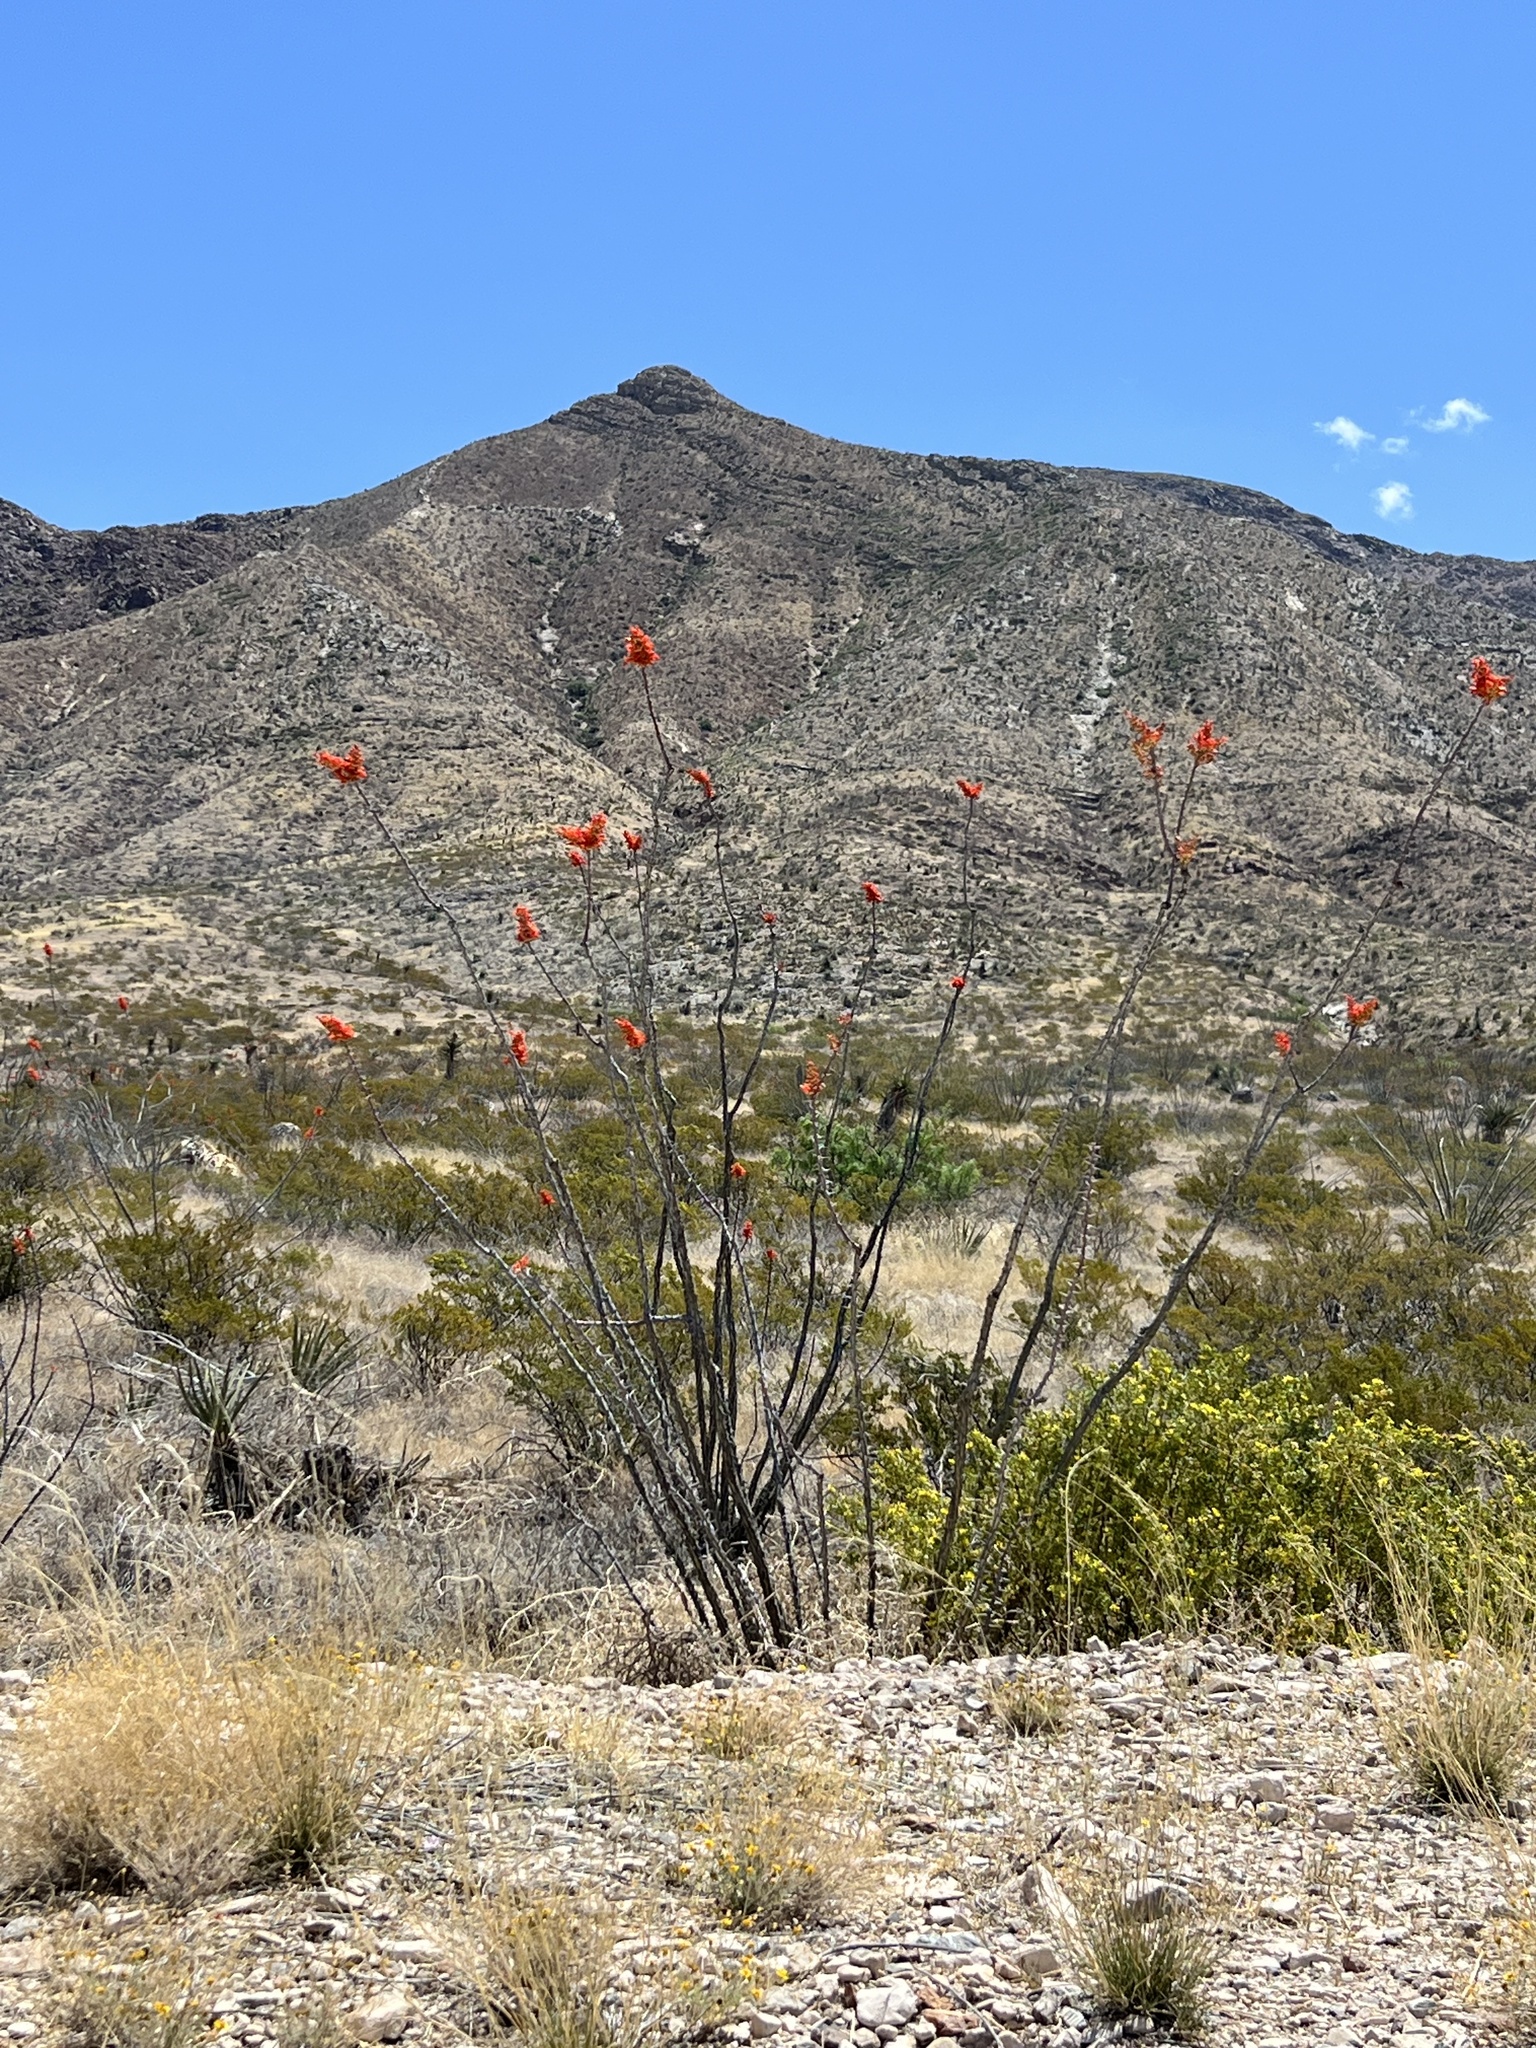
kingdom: Plantae
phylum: Tracheophyta
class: Magnoliopsida
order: Ericales
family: Fouquieriaceae
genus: Fouquieria
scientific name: Fouquieria splendens
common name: Vine-cactus
